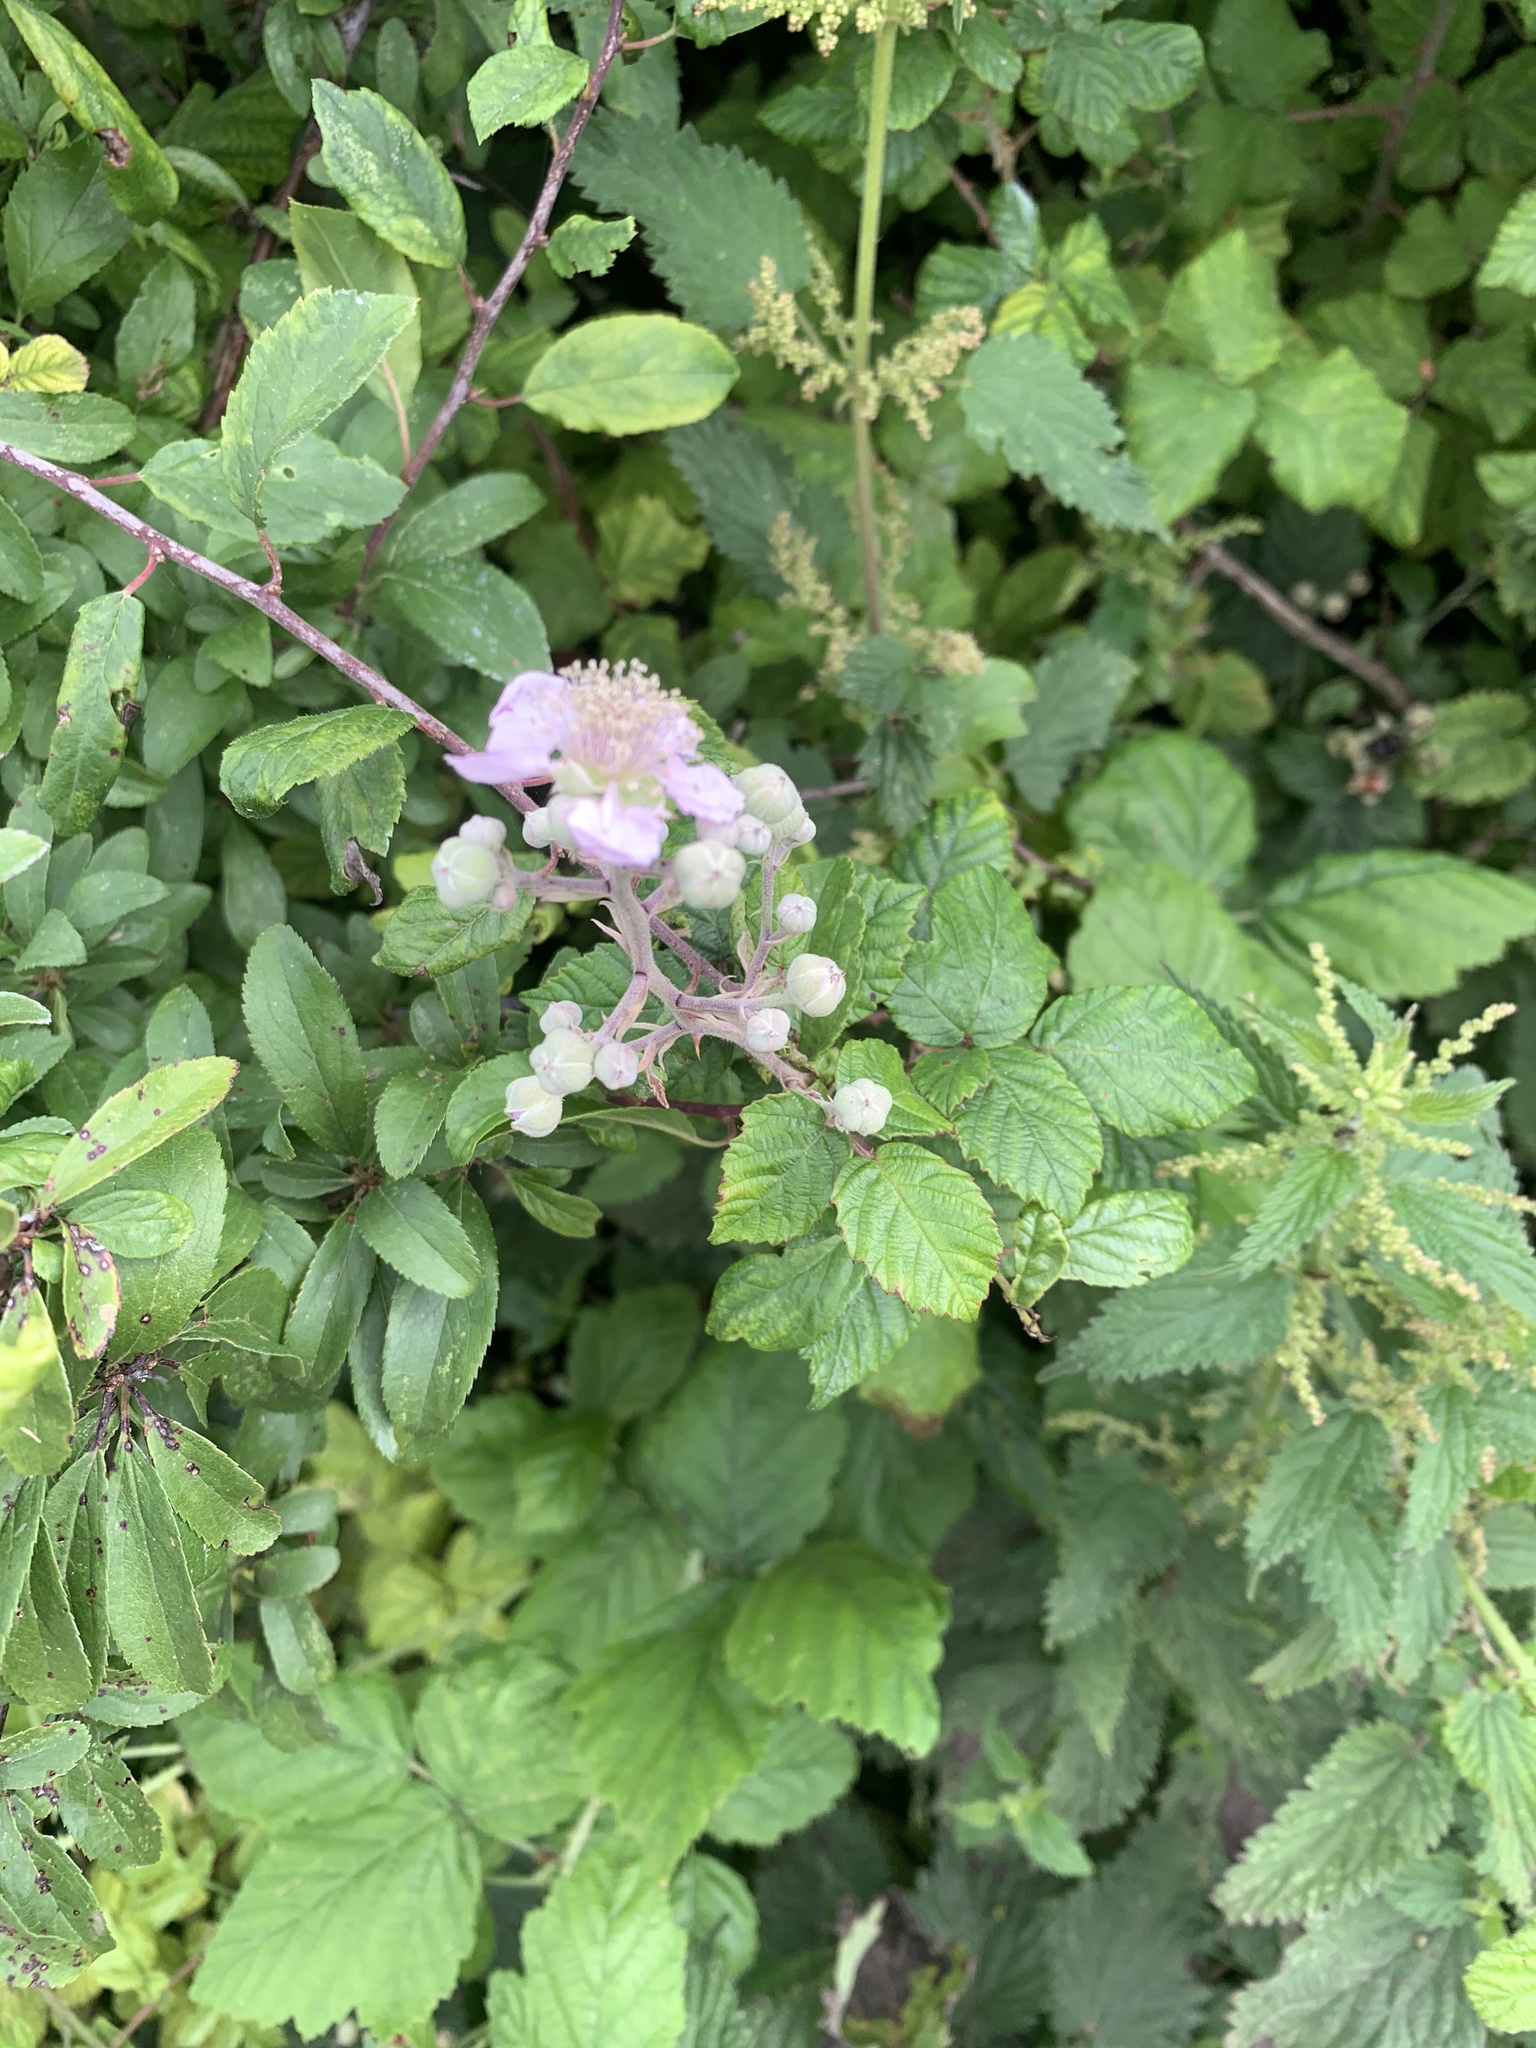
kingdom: Plantae
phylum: Tracheophyta
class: Magnoliopsida
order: Rosales
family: Rosaceae
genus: Rubus
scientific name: Rubus fruticosus
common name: Blackberry, bramble
